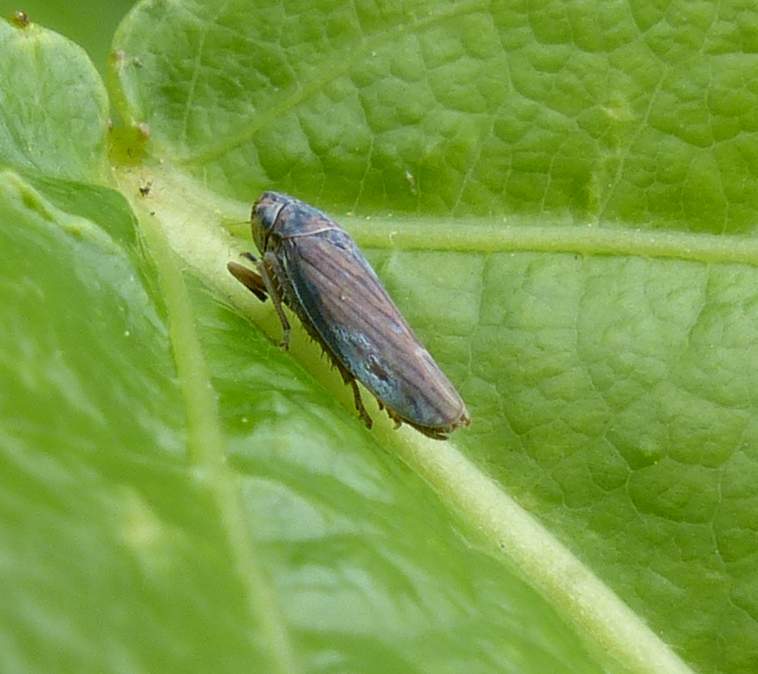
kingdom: Animalia
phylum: Arthropoda
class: Insecta
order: Hemiptera
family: Cicadellidae
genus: Neokolla
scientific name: Neokolla hieroglyphica
